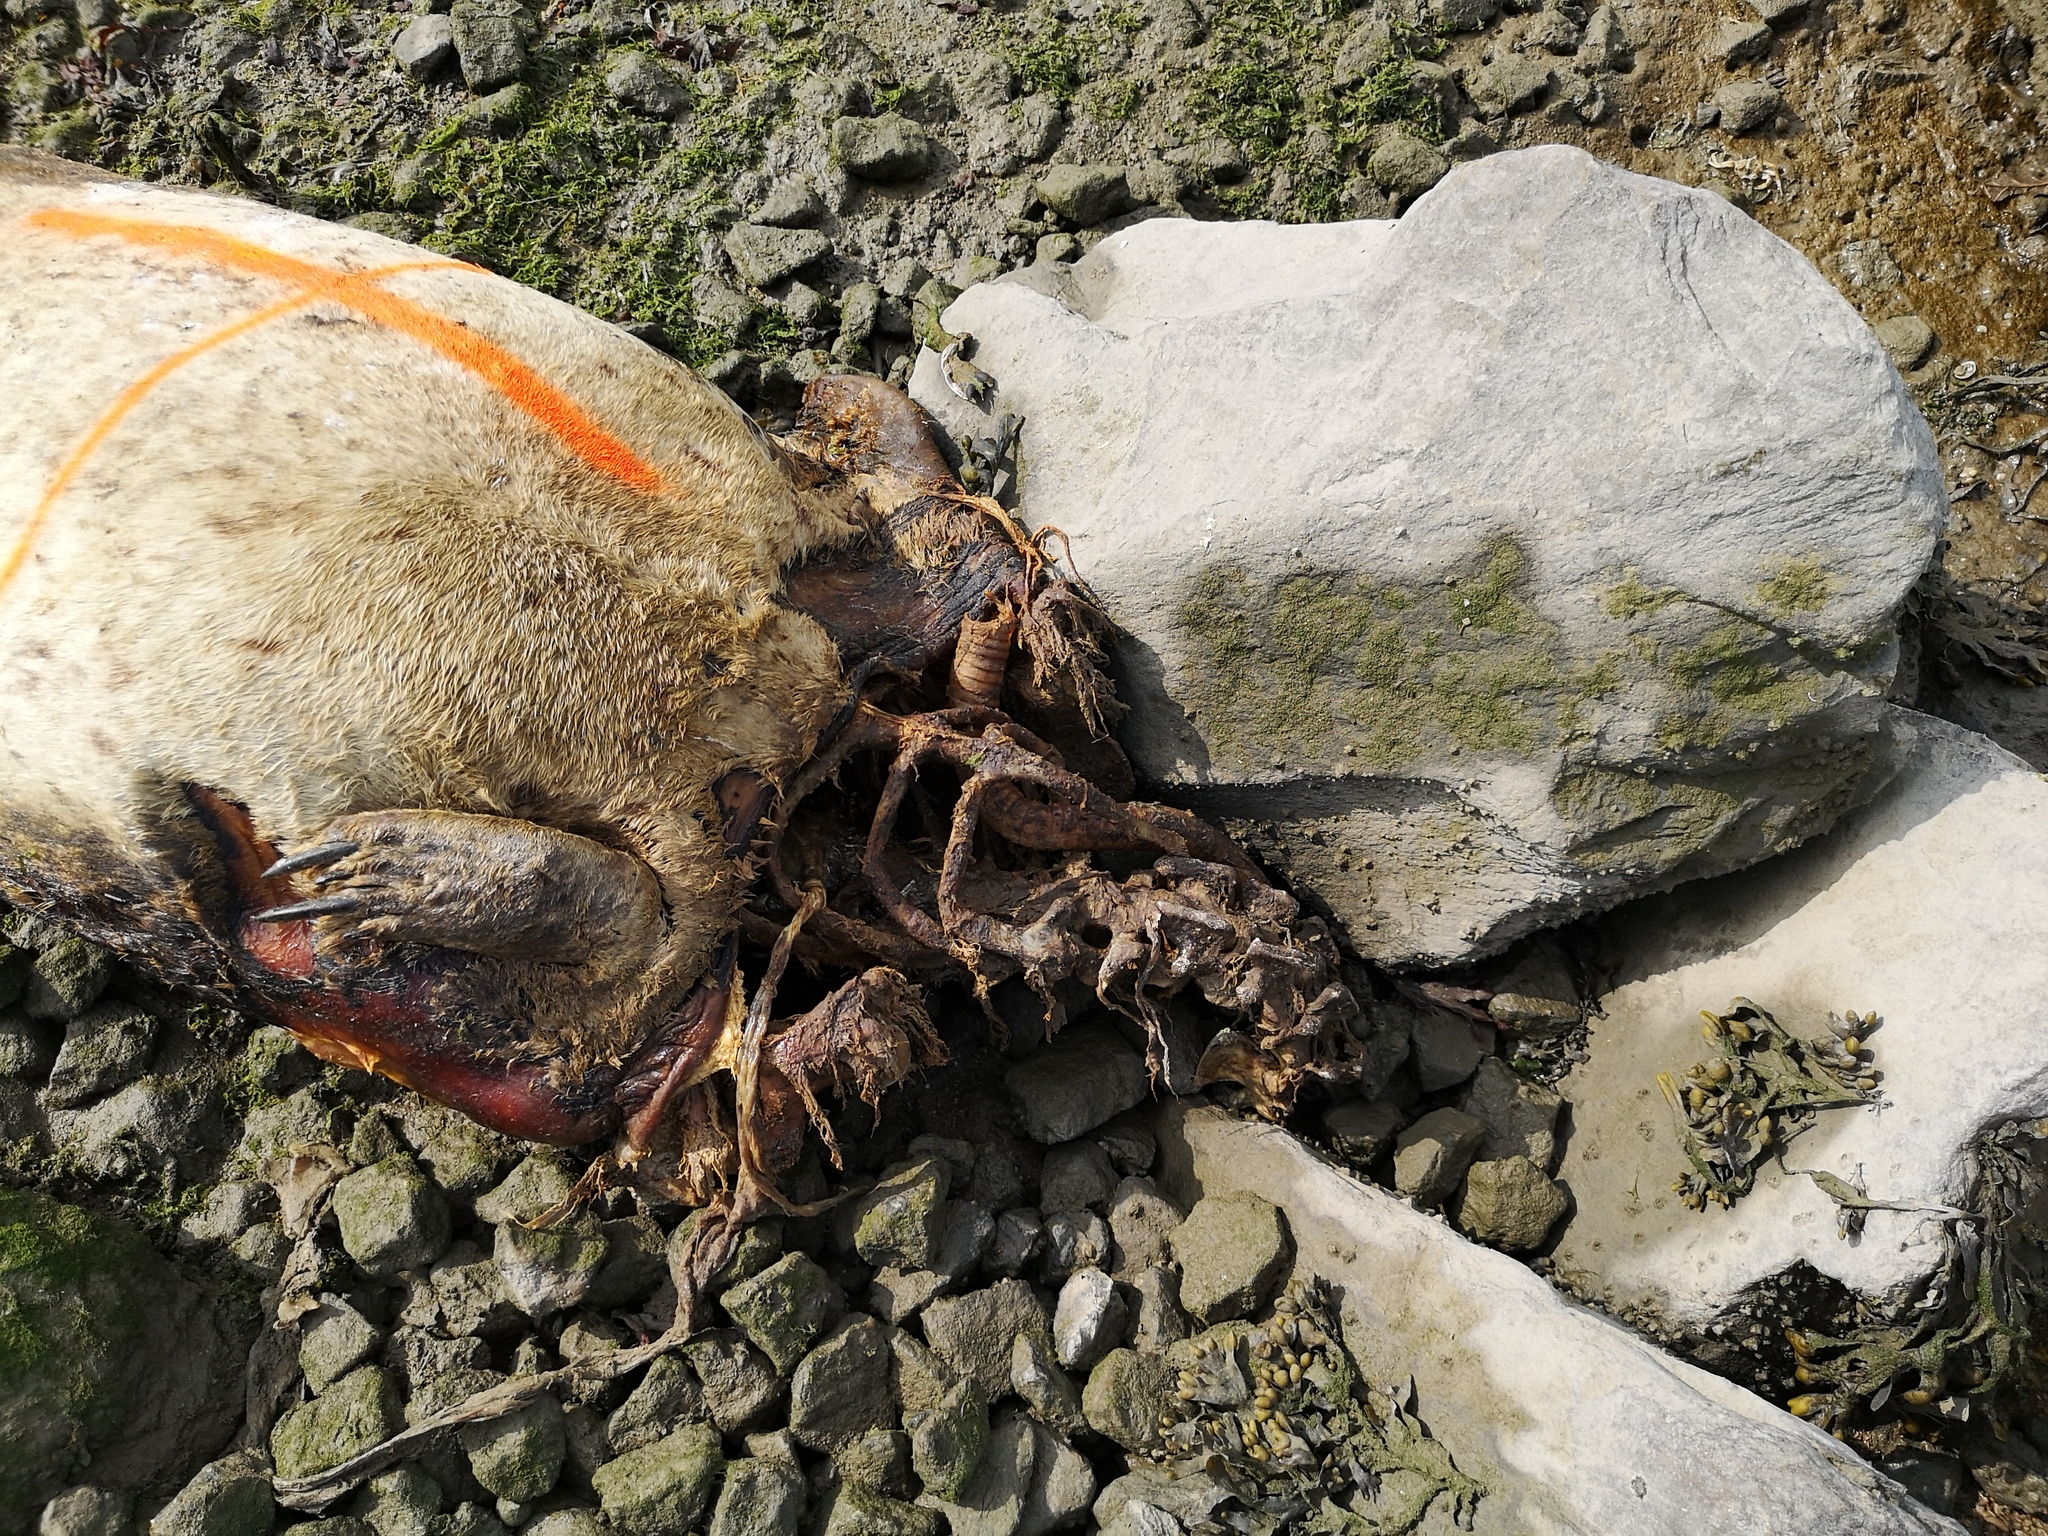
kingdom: Animalia
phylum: Chordata
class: Mammalia
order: Carnivora
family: Phocidae
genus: Phoca
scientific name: Phoca vitulina
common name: Harbor seal
